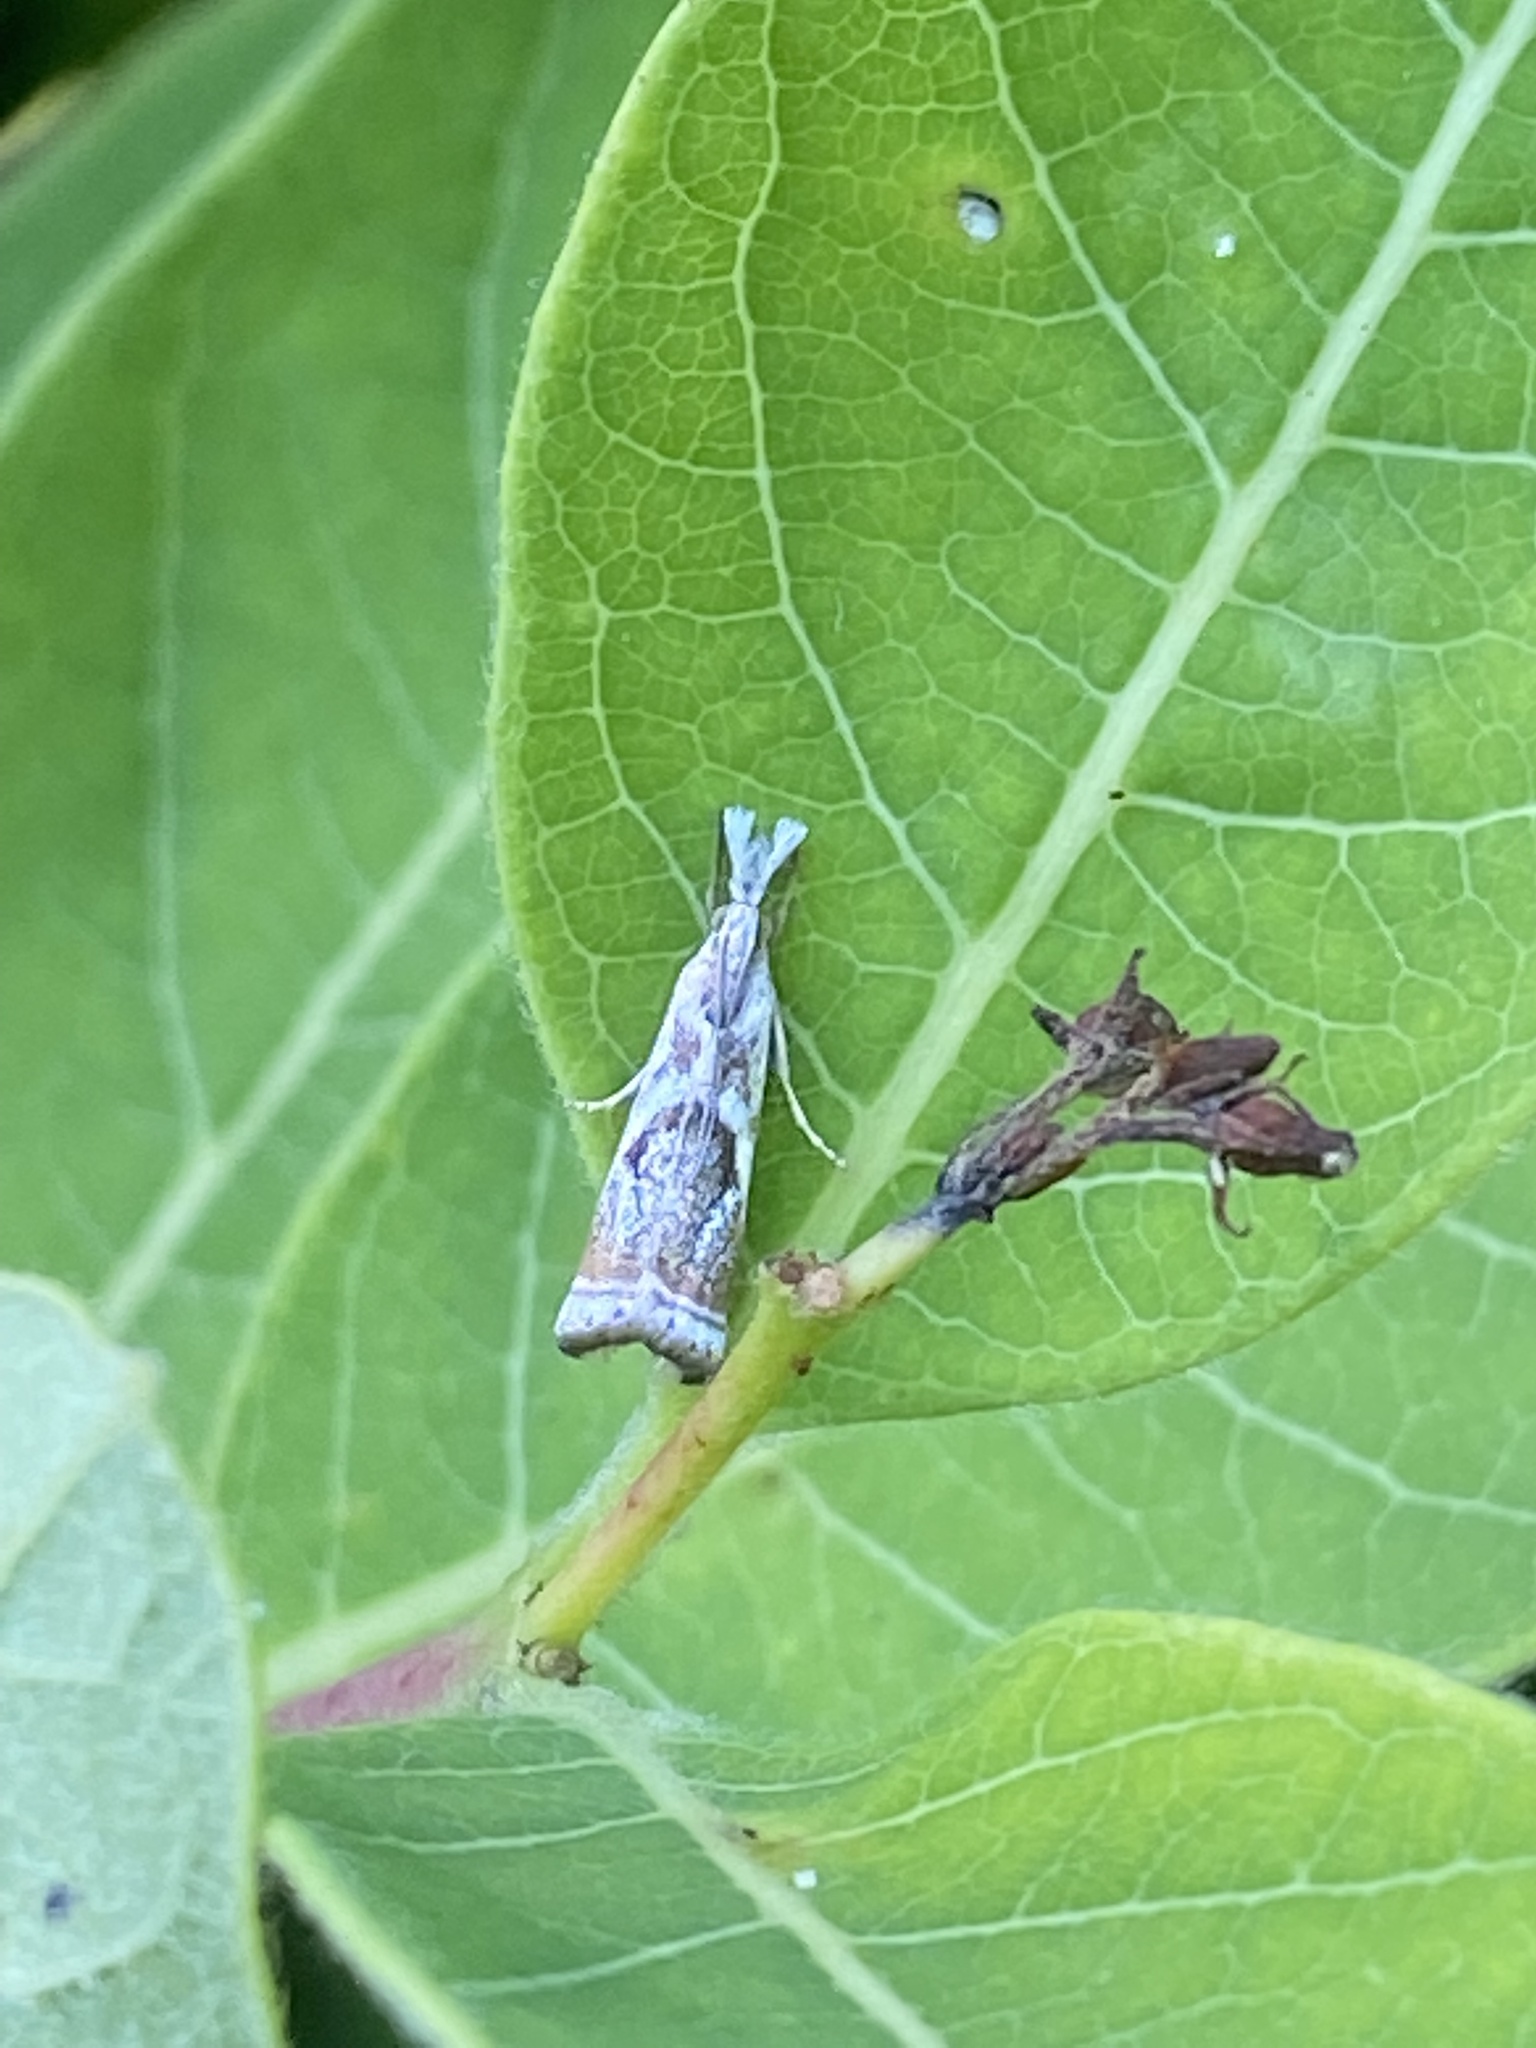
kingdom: Animalia
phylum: Arthropoda
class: Insecta
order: Lepidoptera
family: Crambidae
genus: Microcrambus
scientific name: Microcrambus elegans
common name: Elegant grass-veneer
